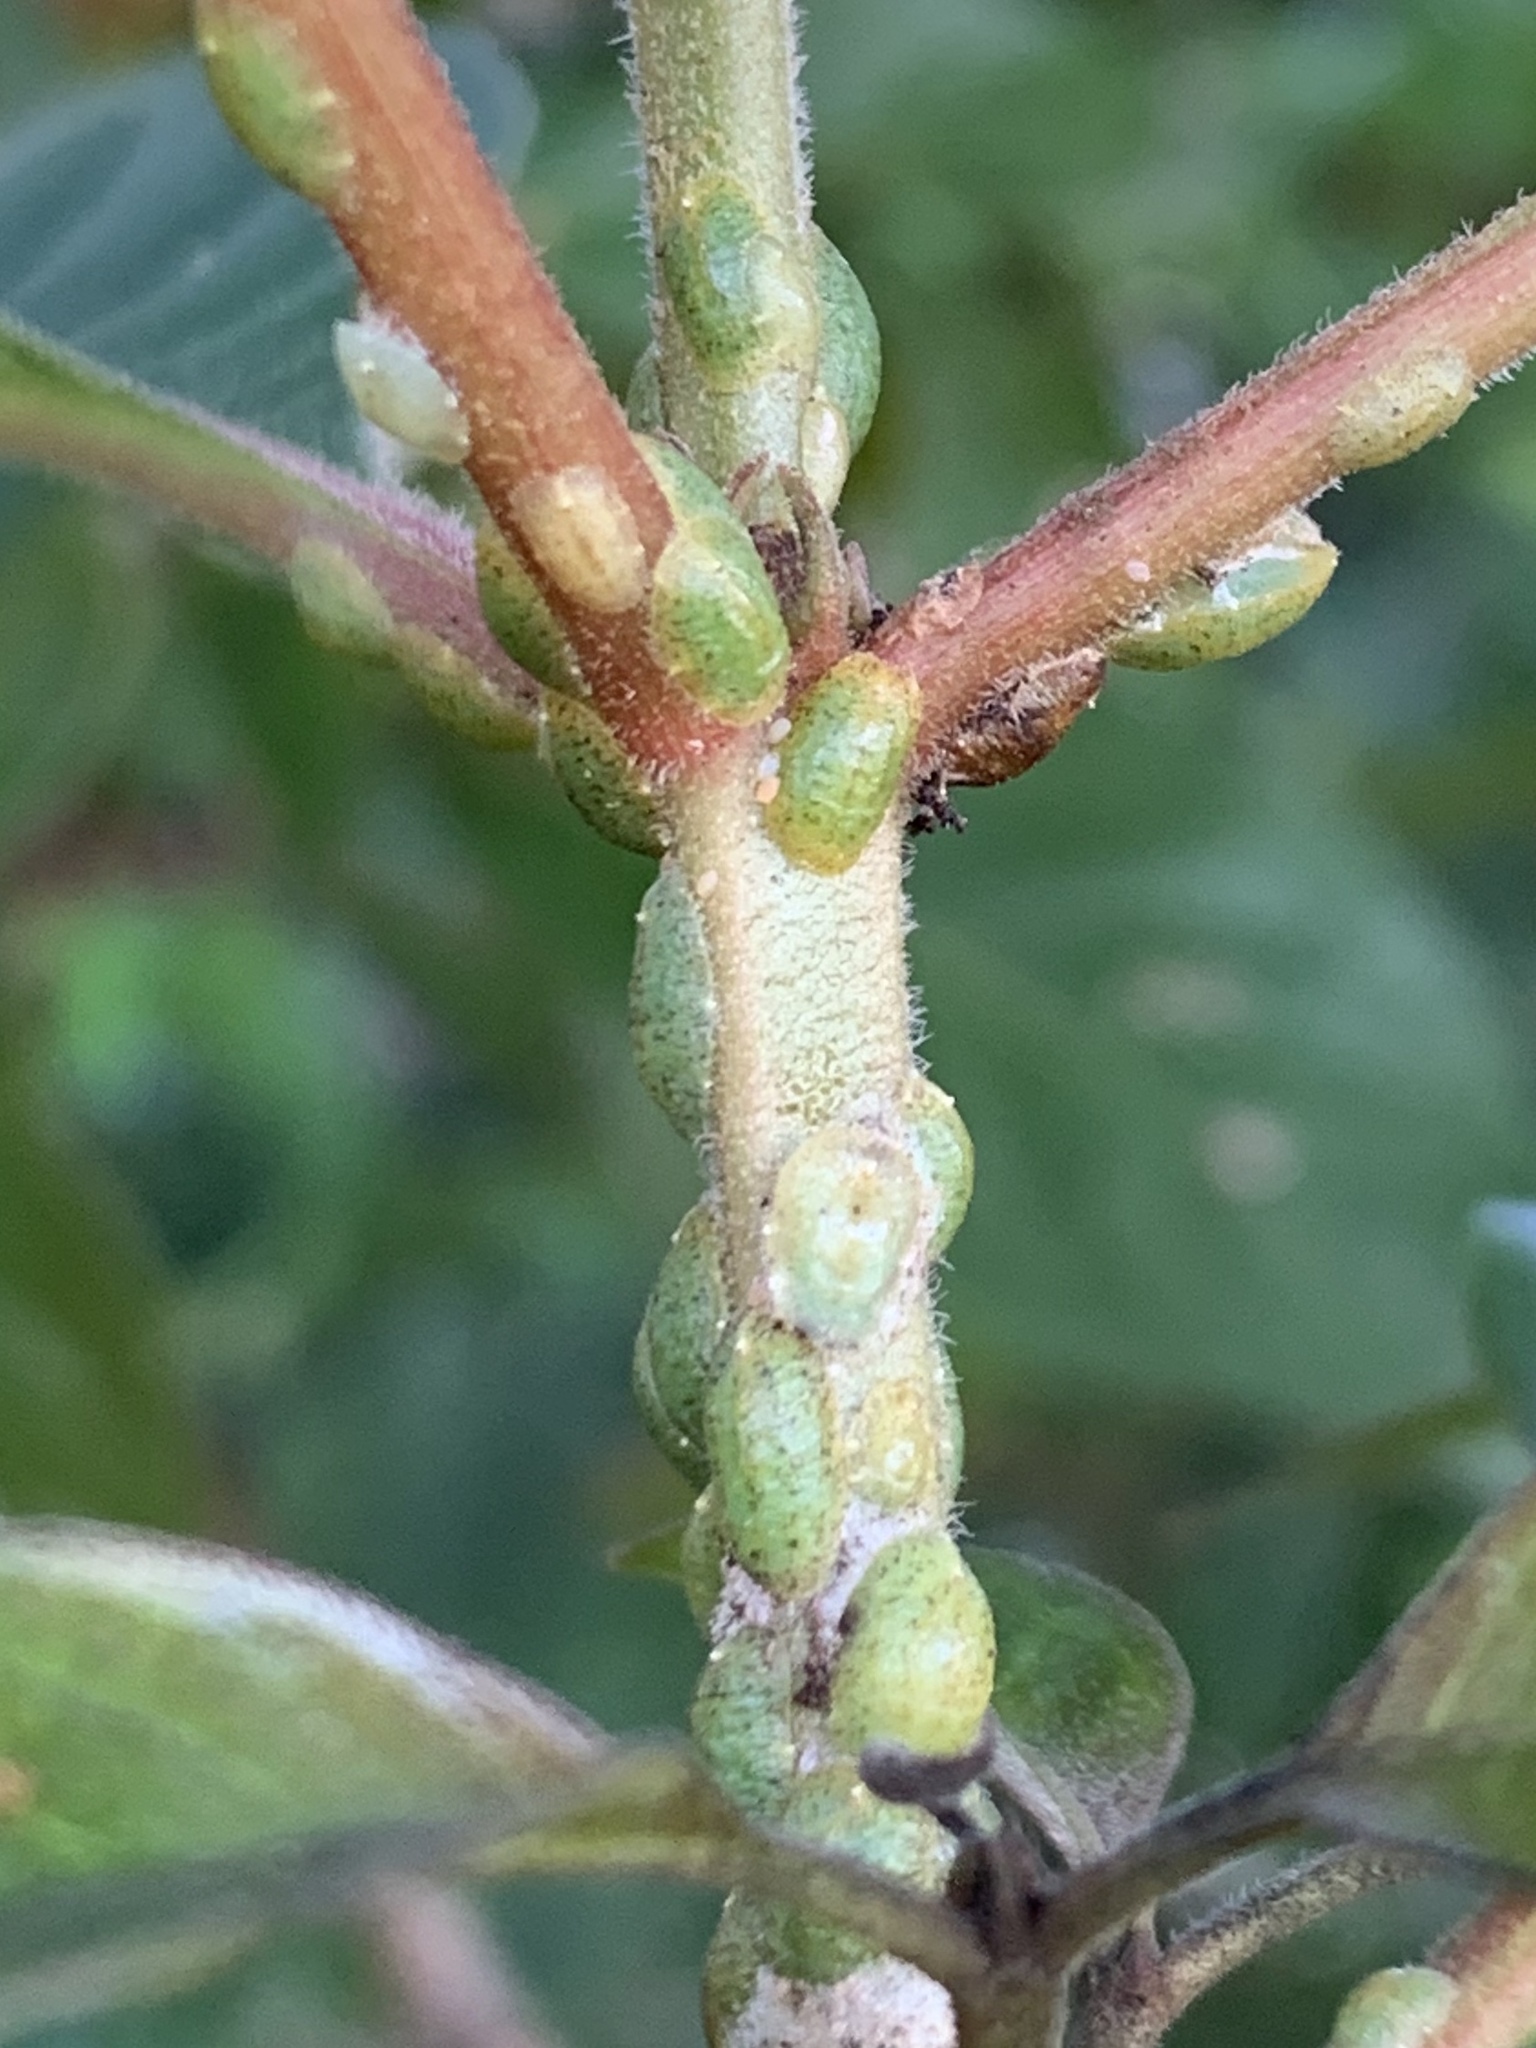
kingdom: Animalia
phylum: Arthropoda
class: Insecta
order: Hemiptera
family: Coccidae
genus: Phalacrococcus
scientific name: Phalacrococcus howertoni
